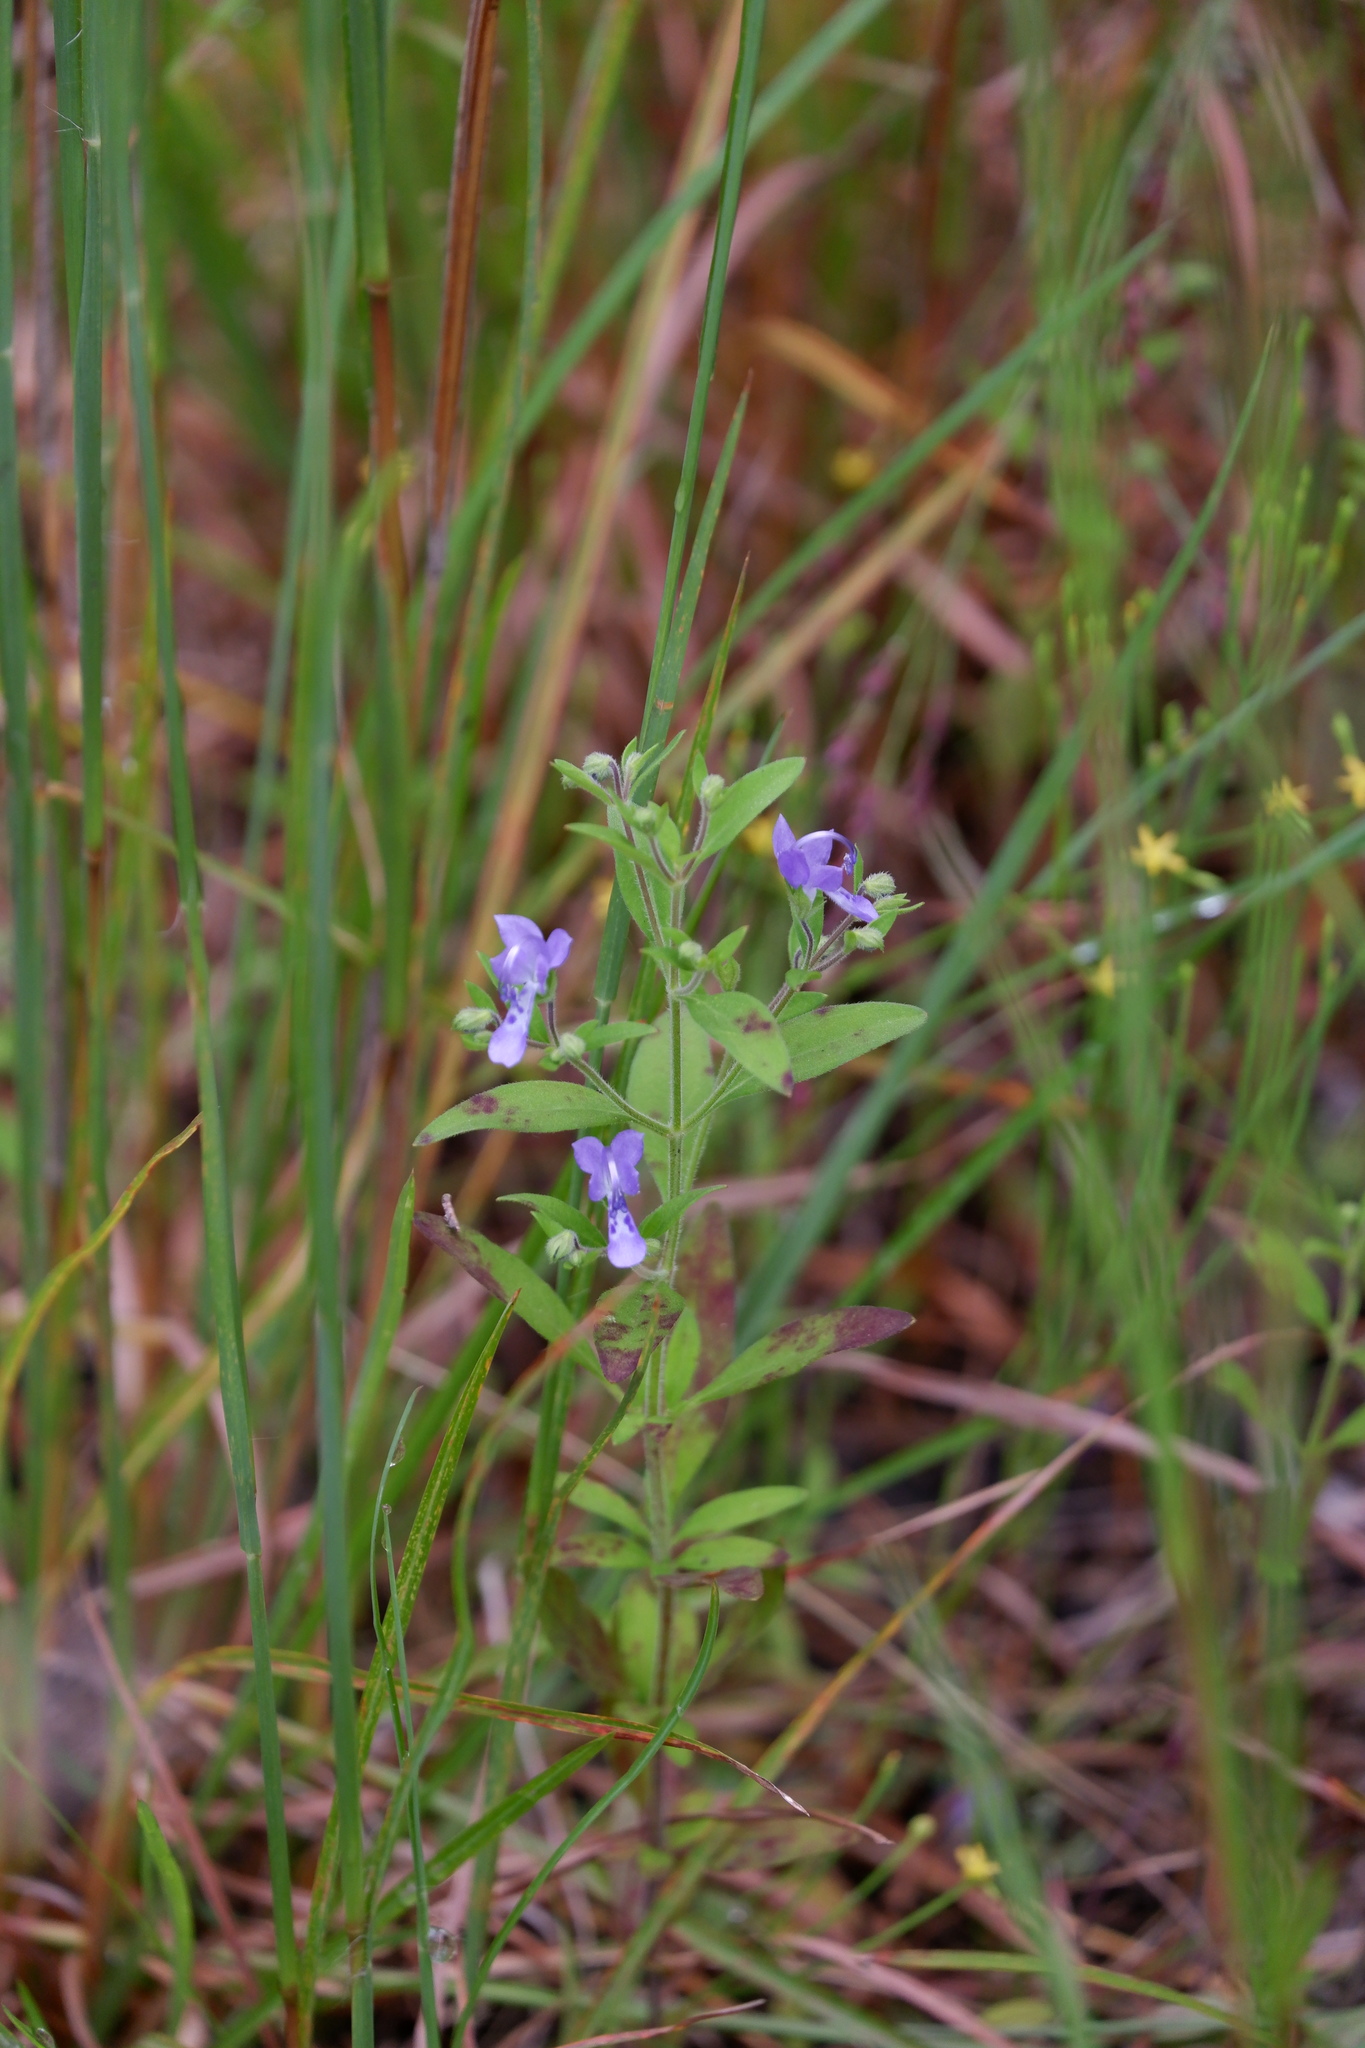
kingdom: Plantae
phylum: Tracheophyta
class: Magnoliopsida
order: Lamiales
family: Lamiaceae
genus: Trichostema
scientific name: Trichostema dichotomum
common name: Bastard pennyroyal
